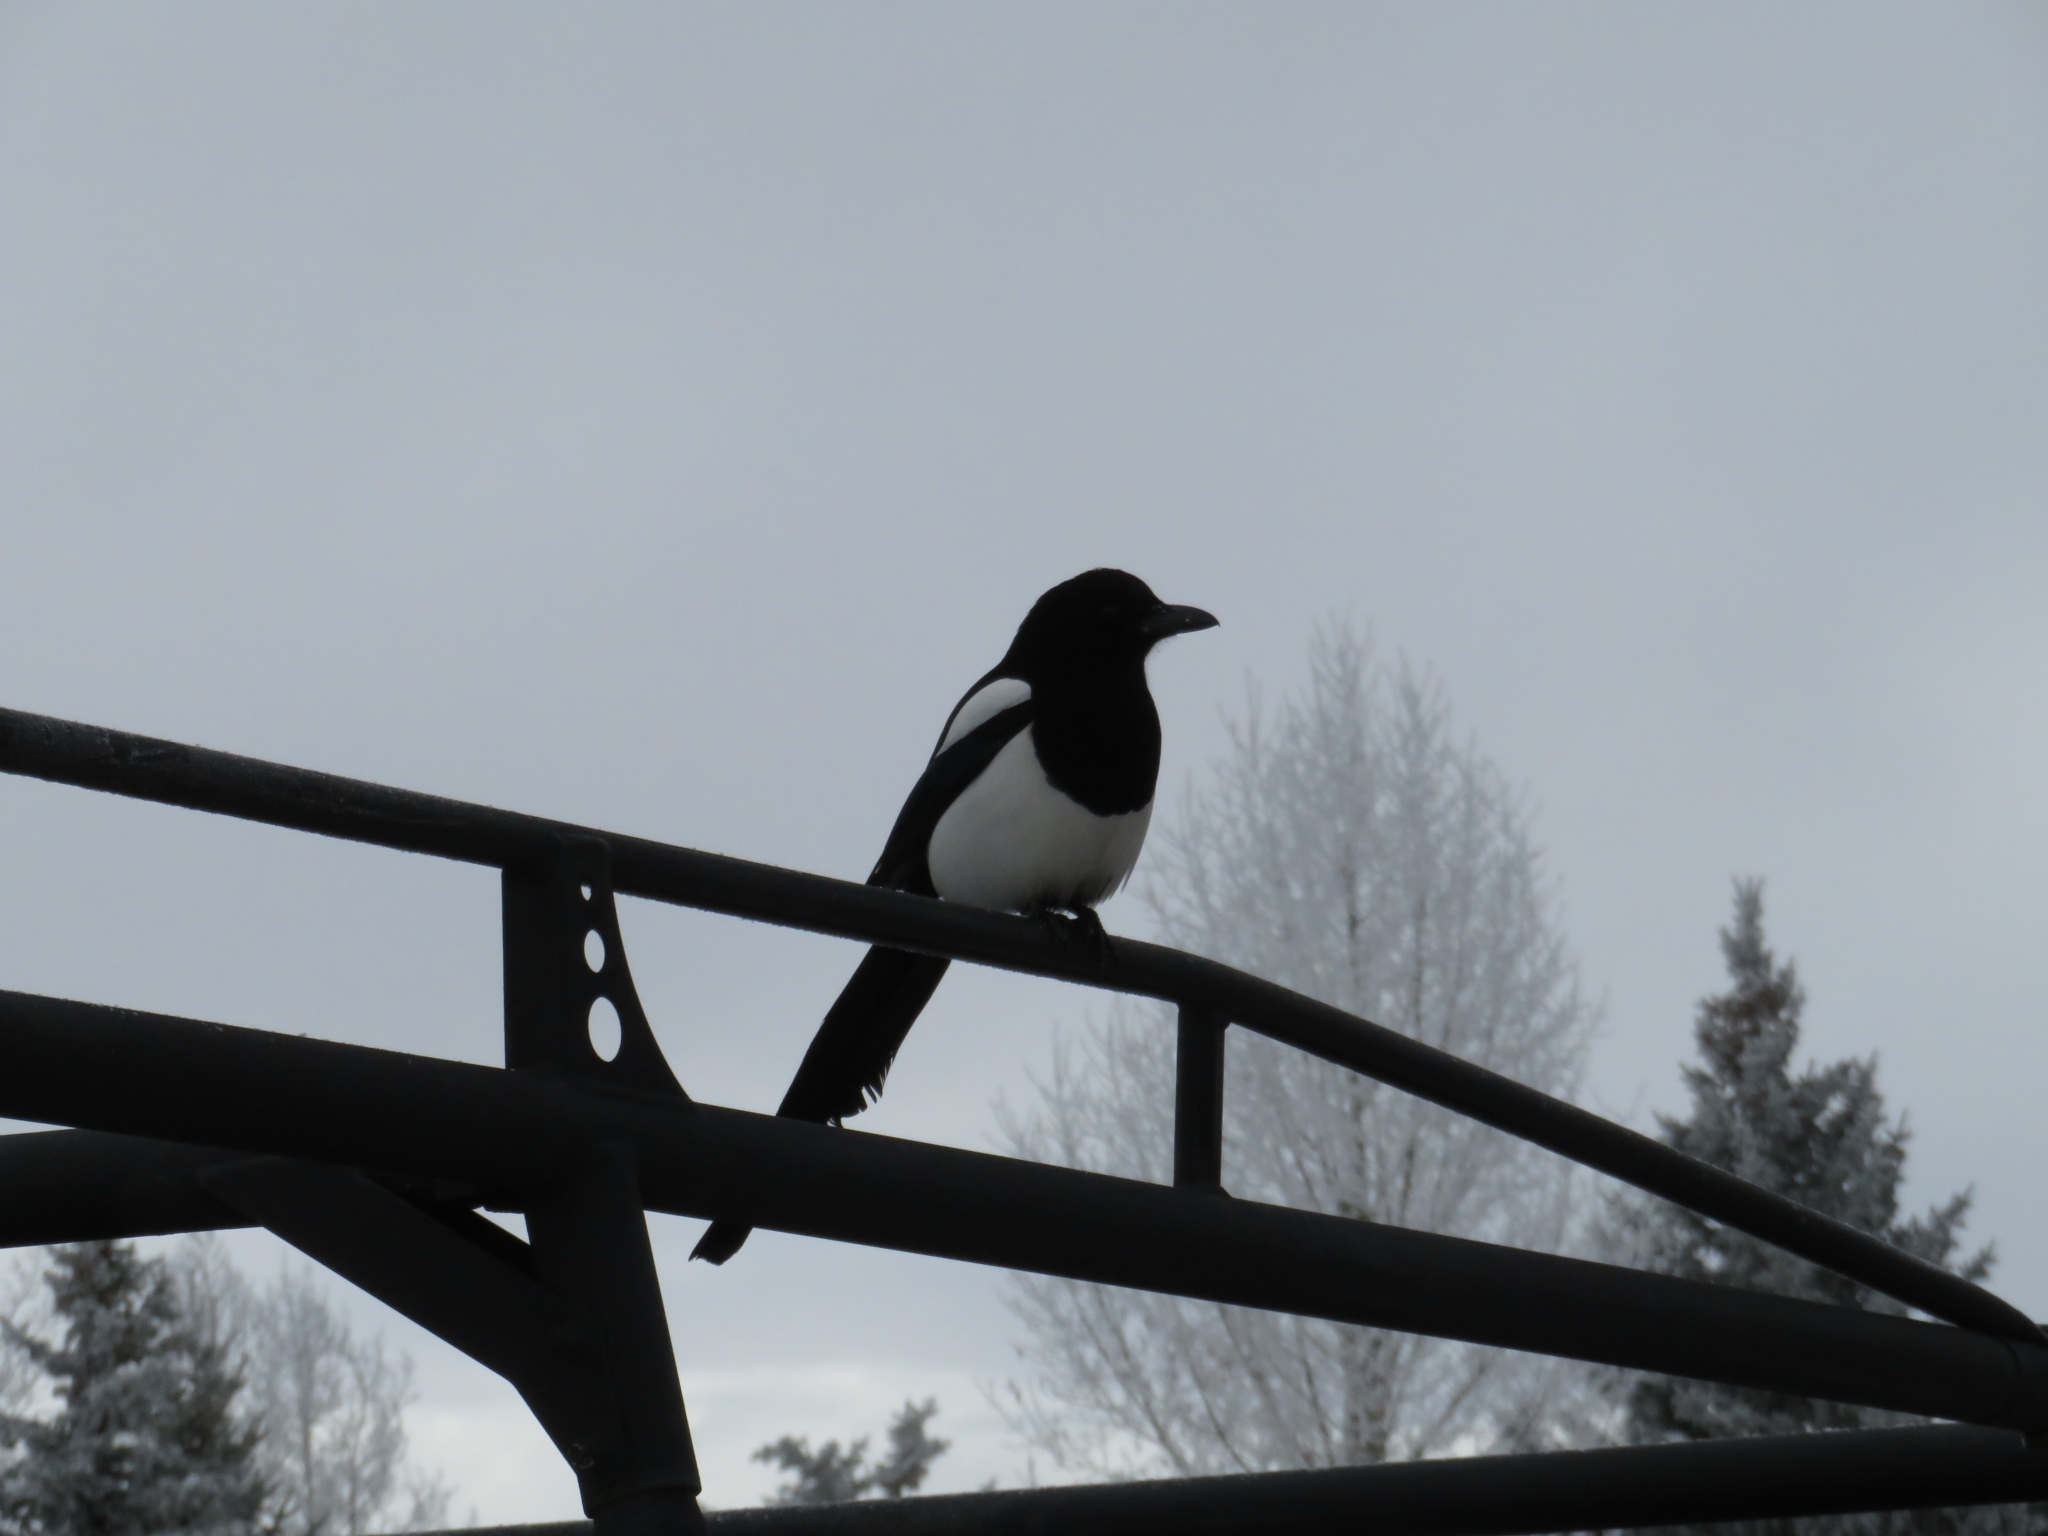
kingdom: Animalia
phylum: Chordata
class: Aves
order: Passeriformes
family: Corvidae
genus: Pica
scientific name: Pica hudsonia
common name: Black-billed magpie
